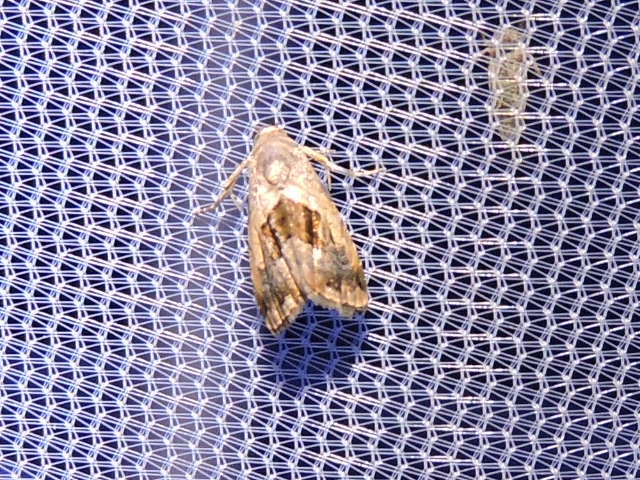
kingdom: Animalia
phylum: Arthropoda
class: Insecta
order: Lepidoptera
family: Noctuidae
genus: Tripudia
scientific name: Tripudia quadrifera
